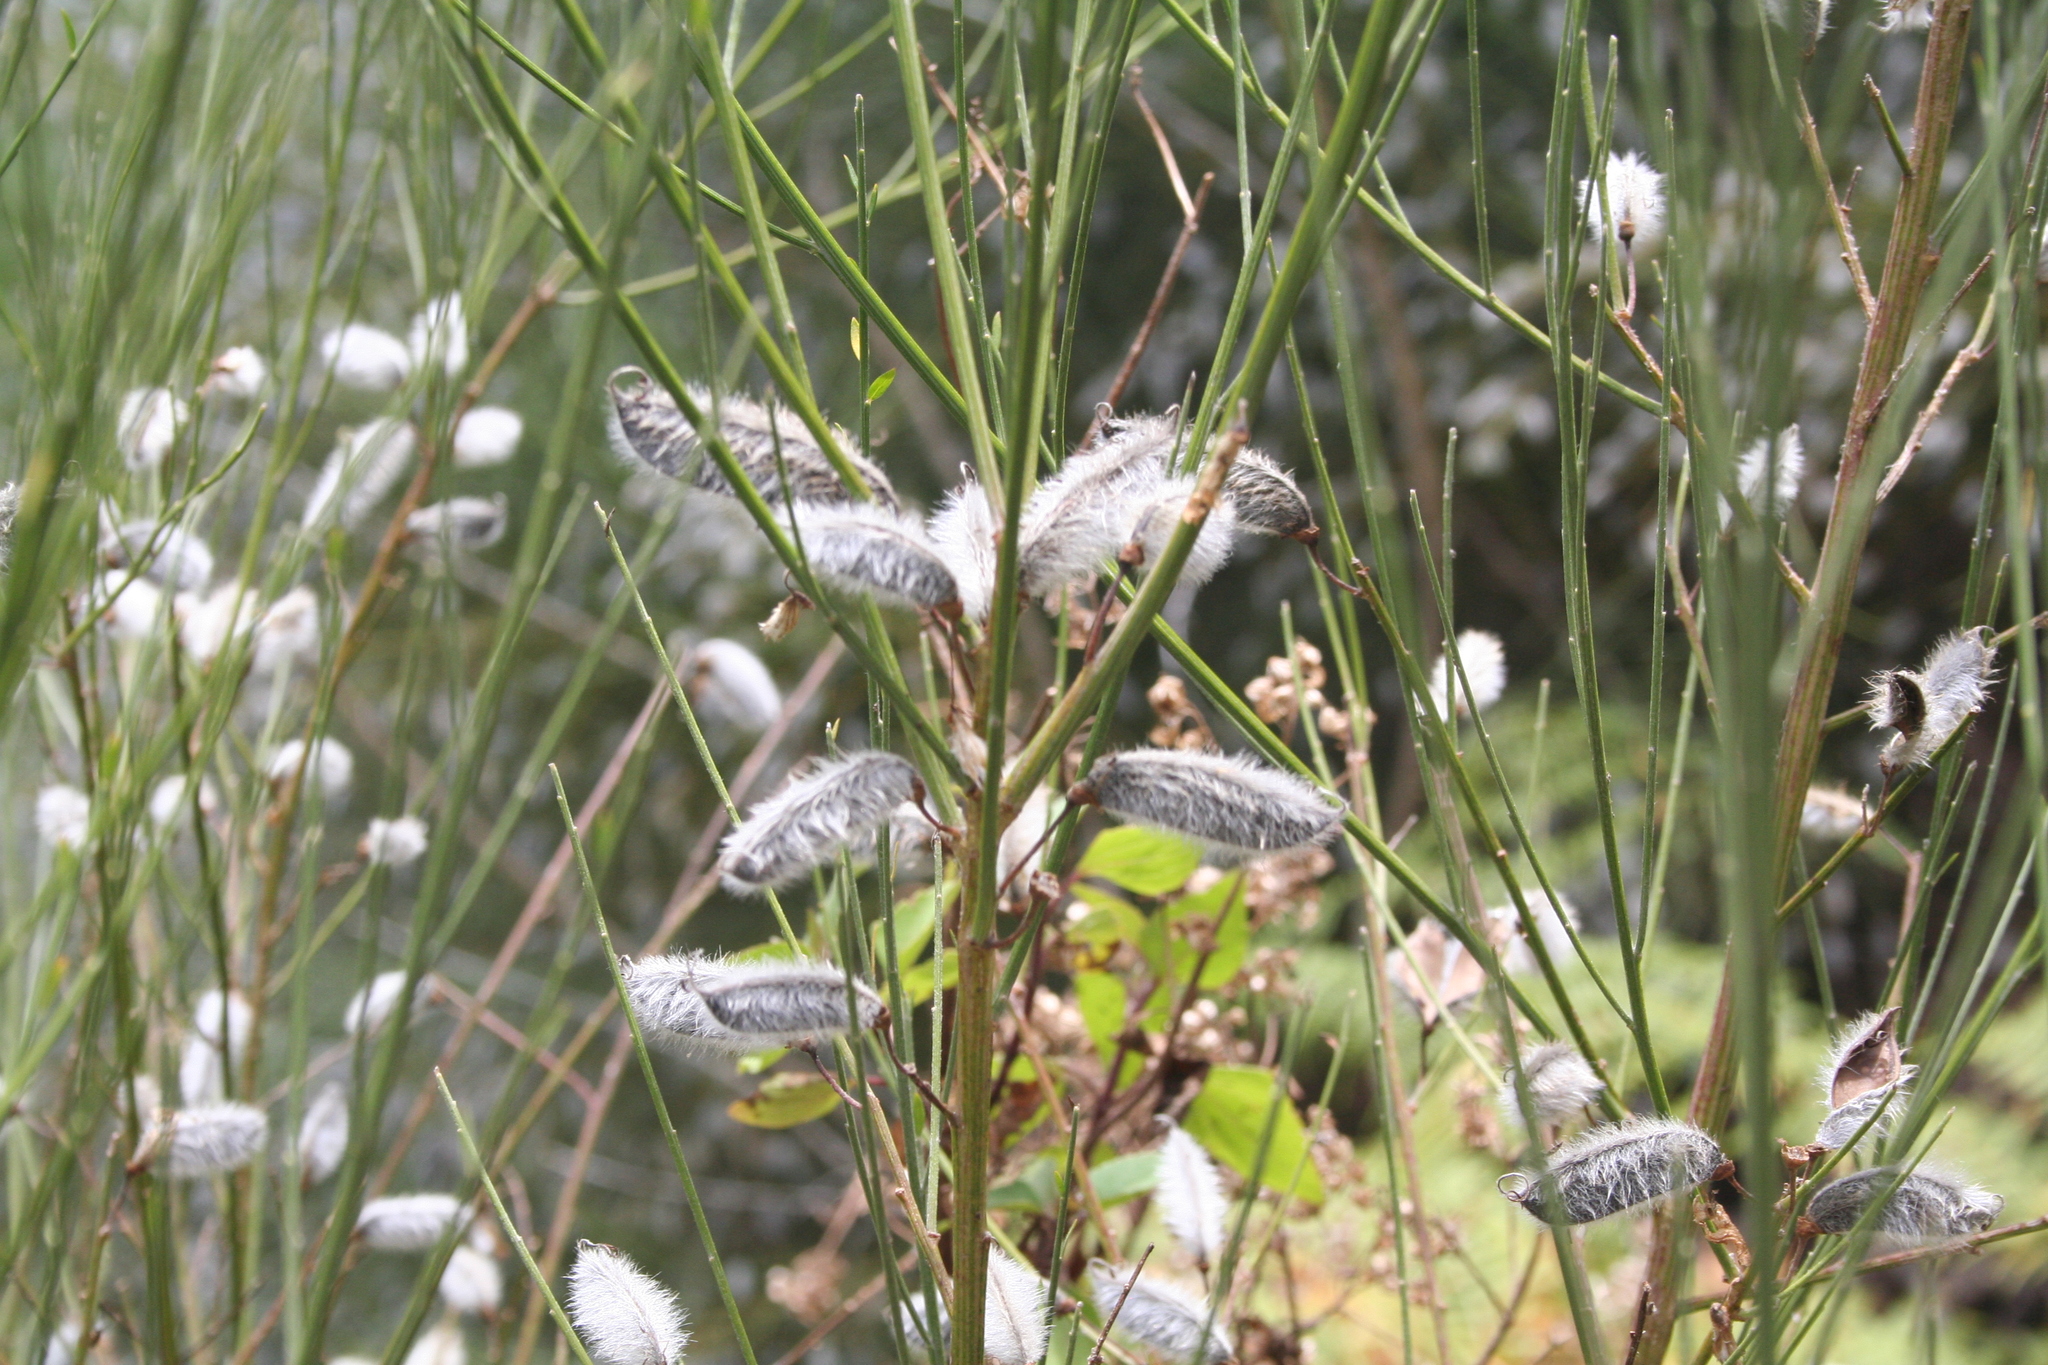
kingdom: Plantae
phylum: Tracheophyta
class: Magnoliopsida
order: Fabales
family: Fabaceae
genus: Cytisus
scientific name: Cytisus striatus
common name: Hairy-fruited broom
